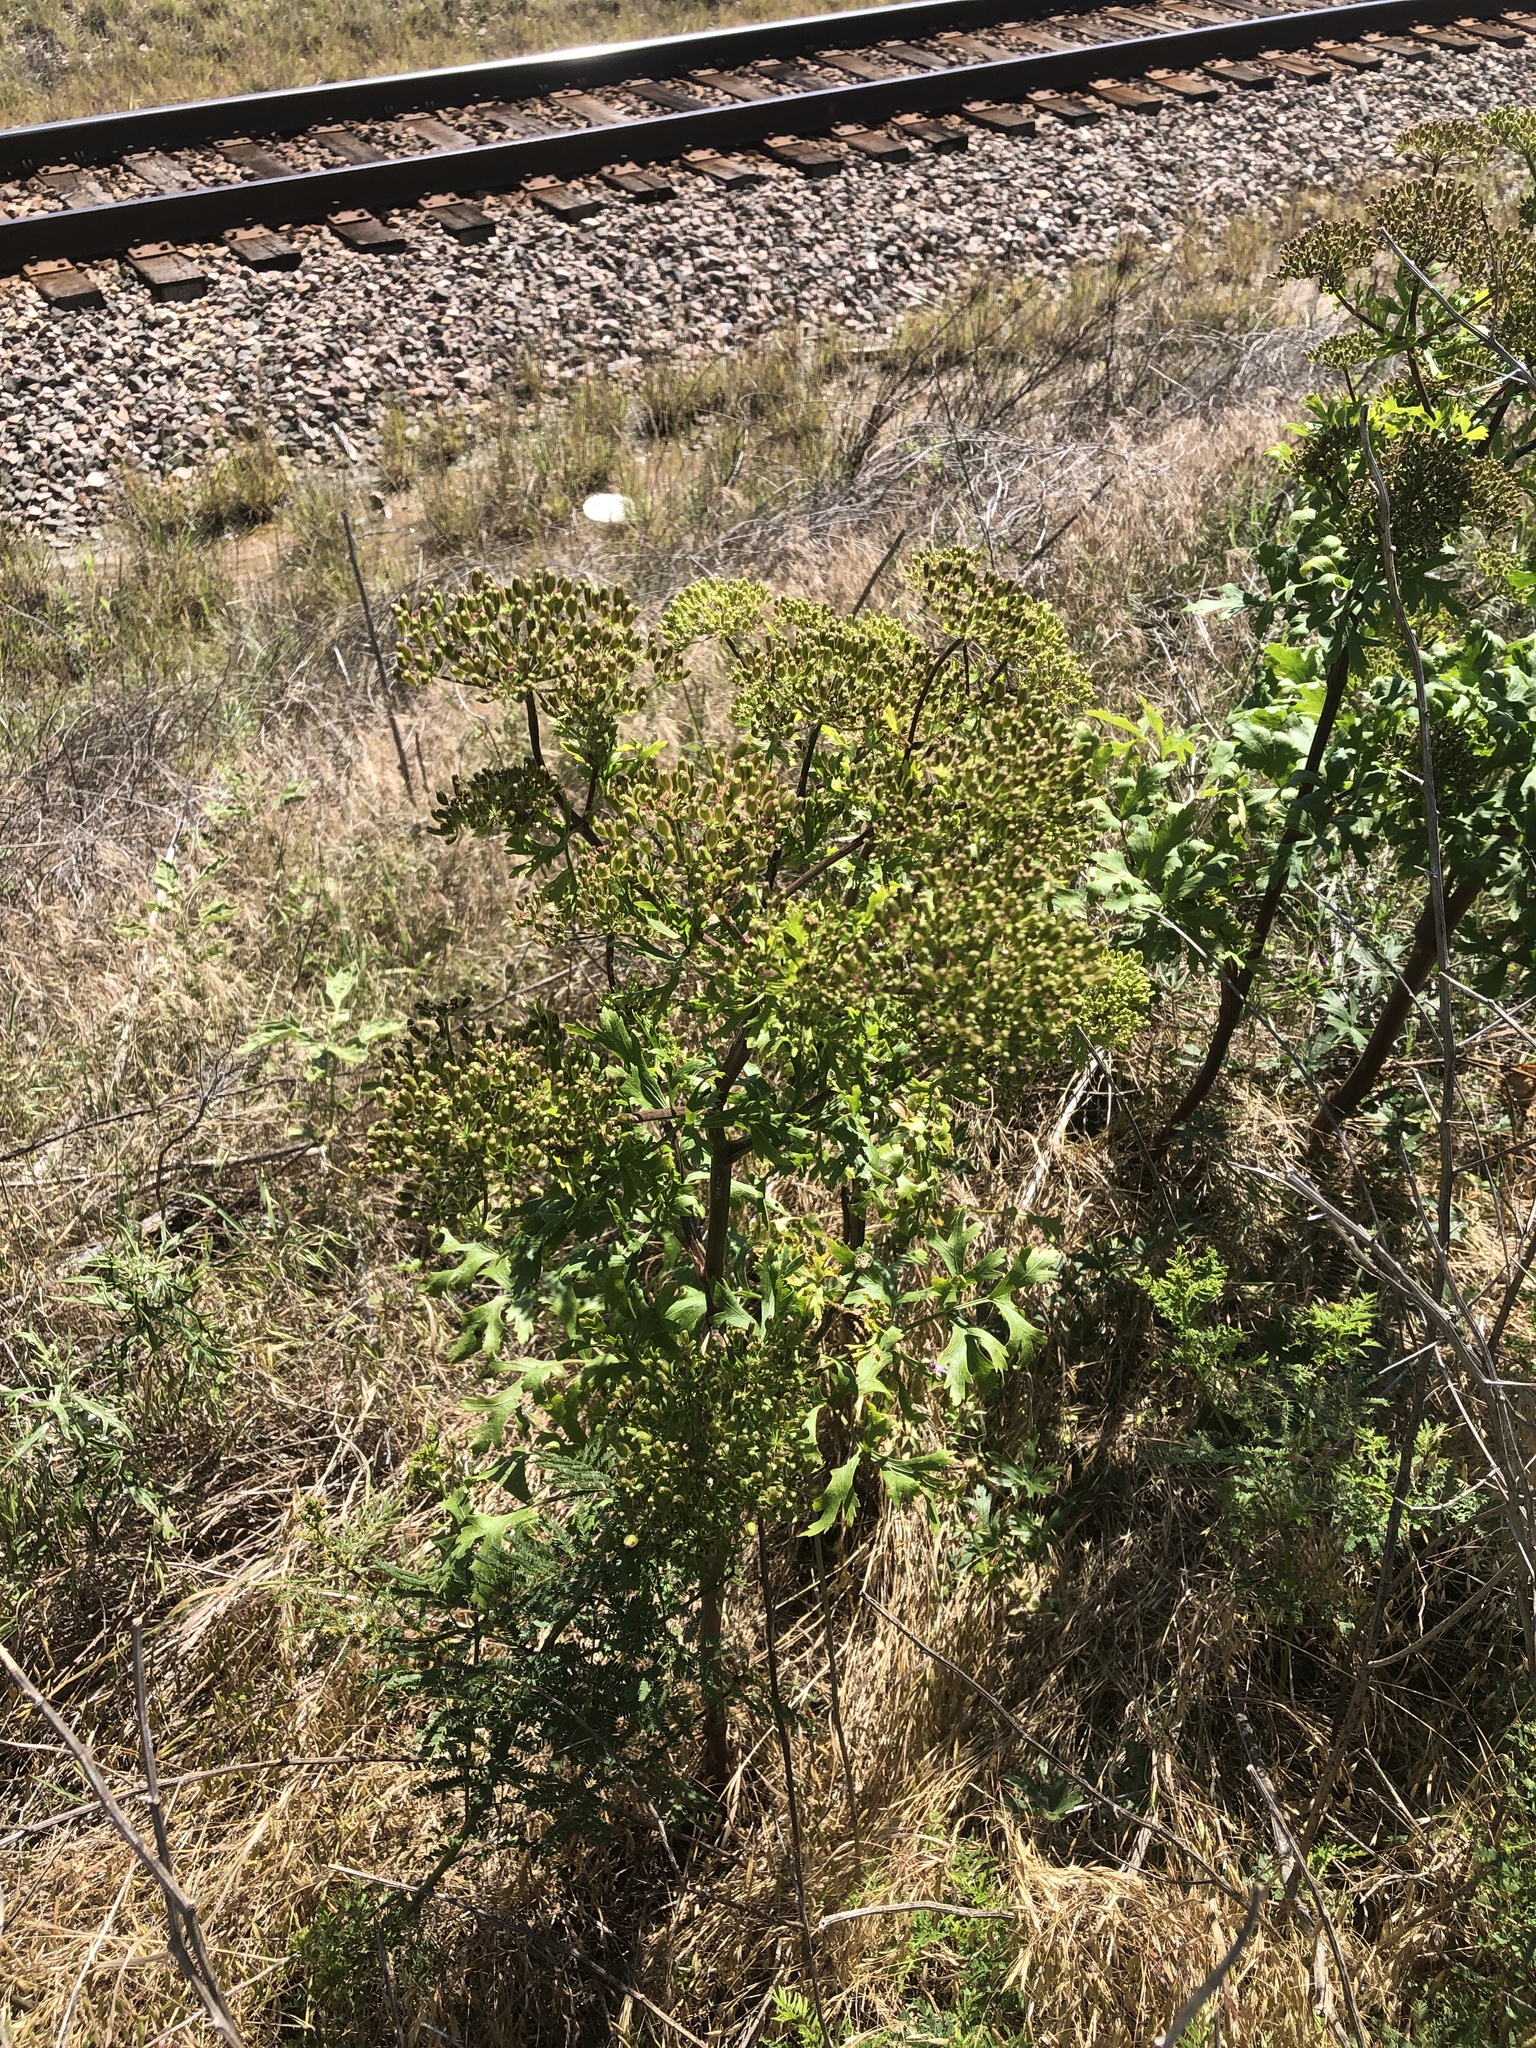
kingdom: Plantae
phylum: Tracheophyta
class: Magnoliopsida
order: Apiales
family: Apiaceae
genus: Polytaenia
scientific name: Polytaenia texana
